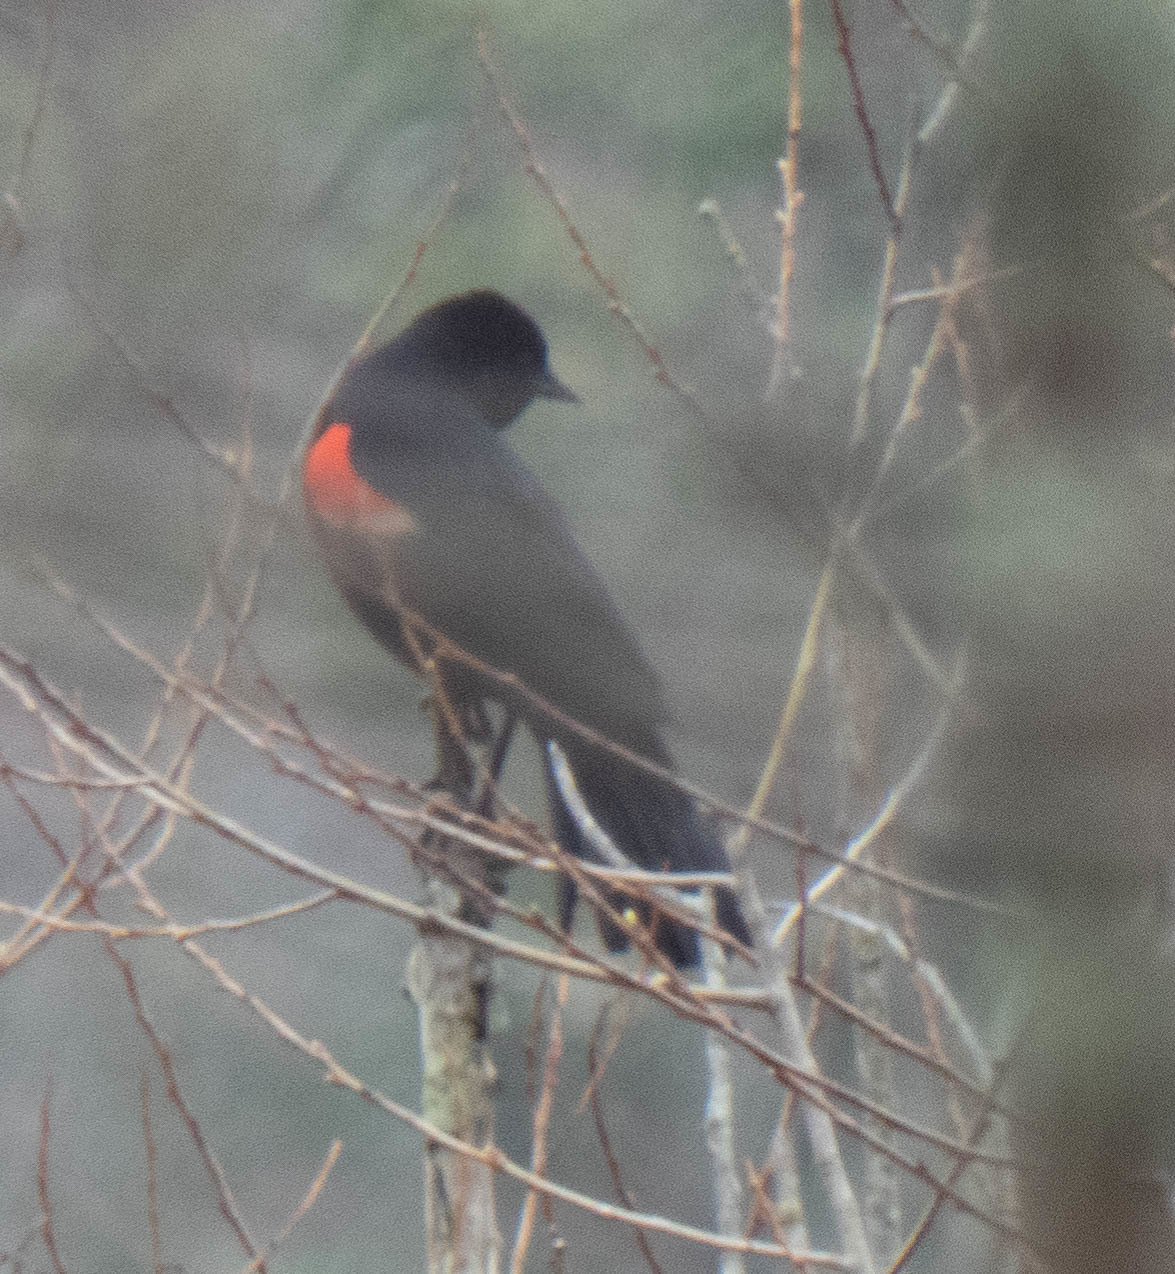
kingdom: Animalia
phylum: Chordata
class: Aves
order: Passeriformes
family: Icteridae
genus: Agelaius
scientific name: Agelaius phoeniceus
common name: Red-winged blackbird
